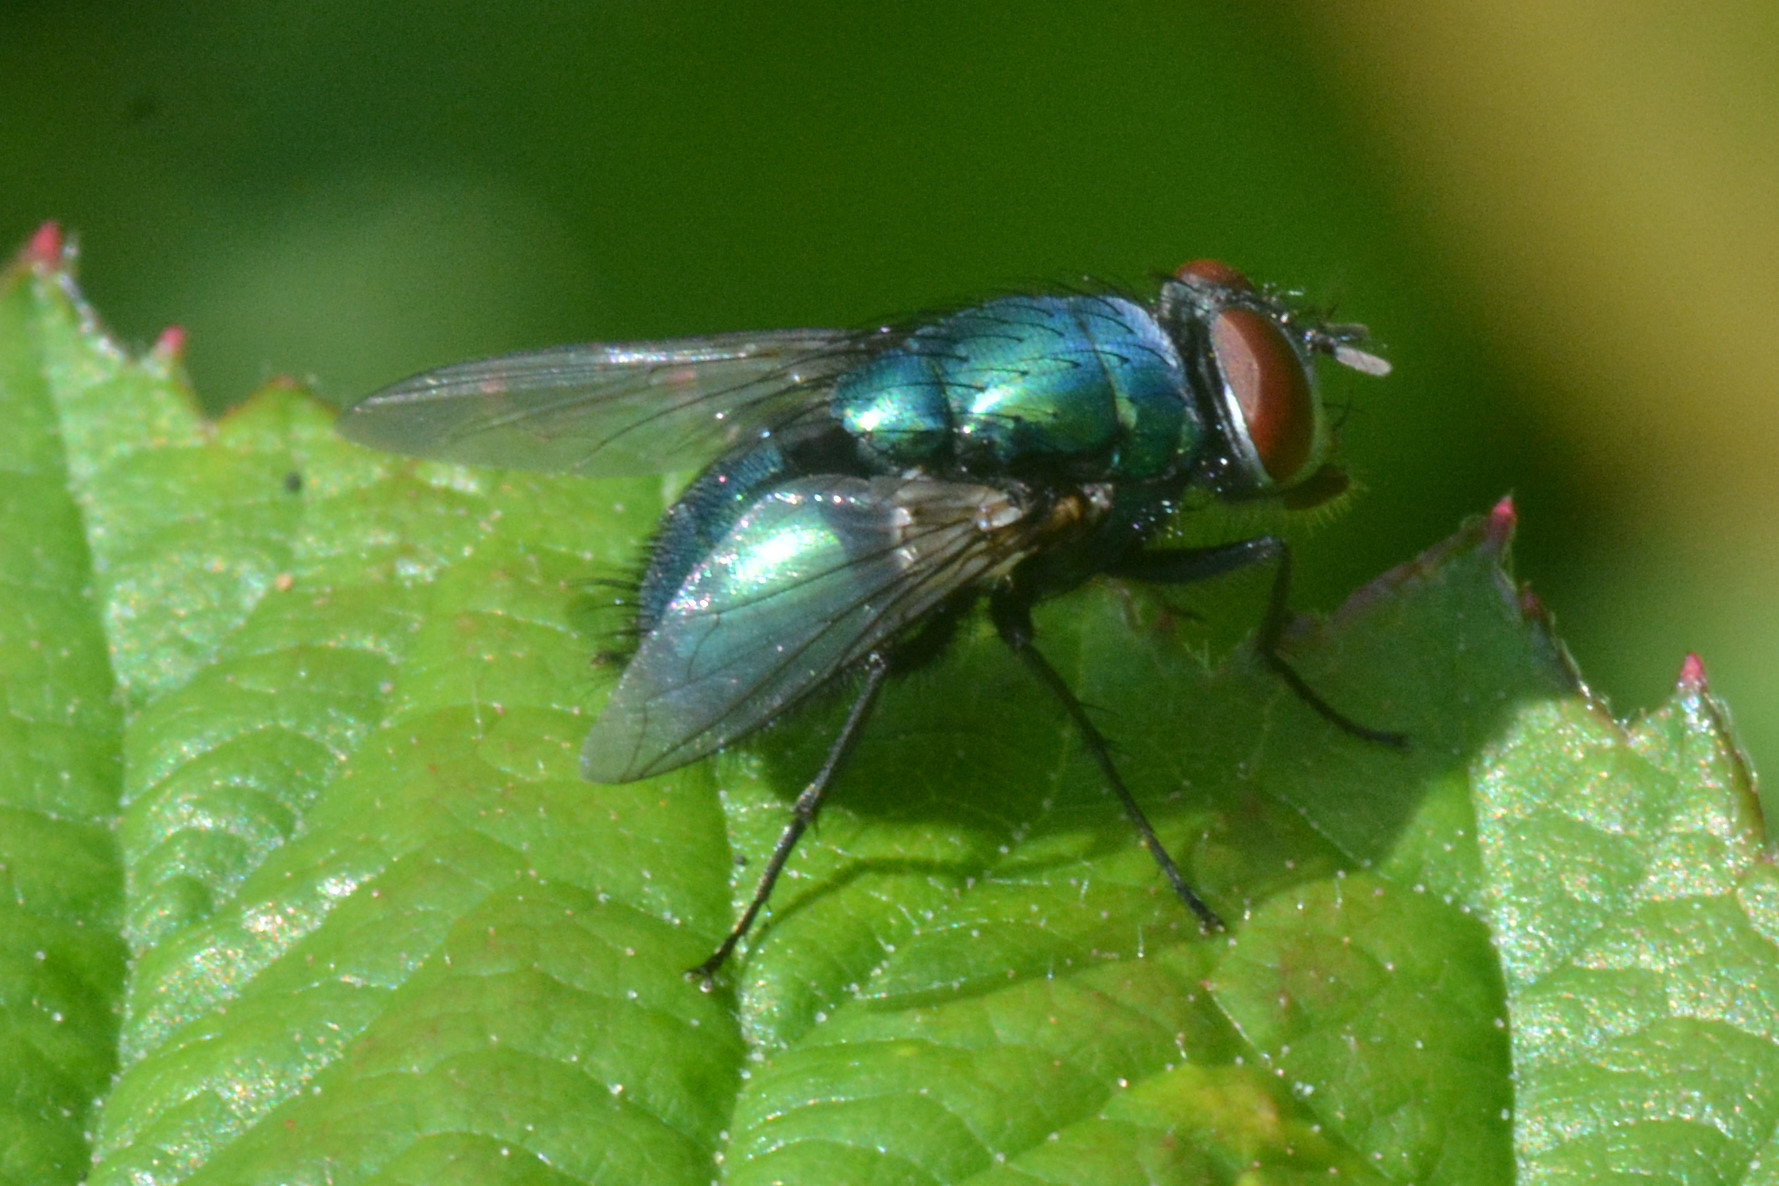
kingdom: Animalia
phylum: Arthropoda
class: Insecta
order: Diptera
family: Calliphoridae
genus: Lucilia
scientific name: Lucilia sericata
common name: Blow fly
